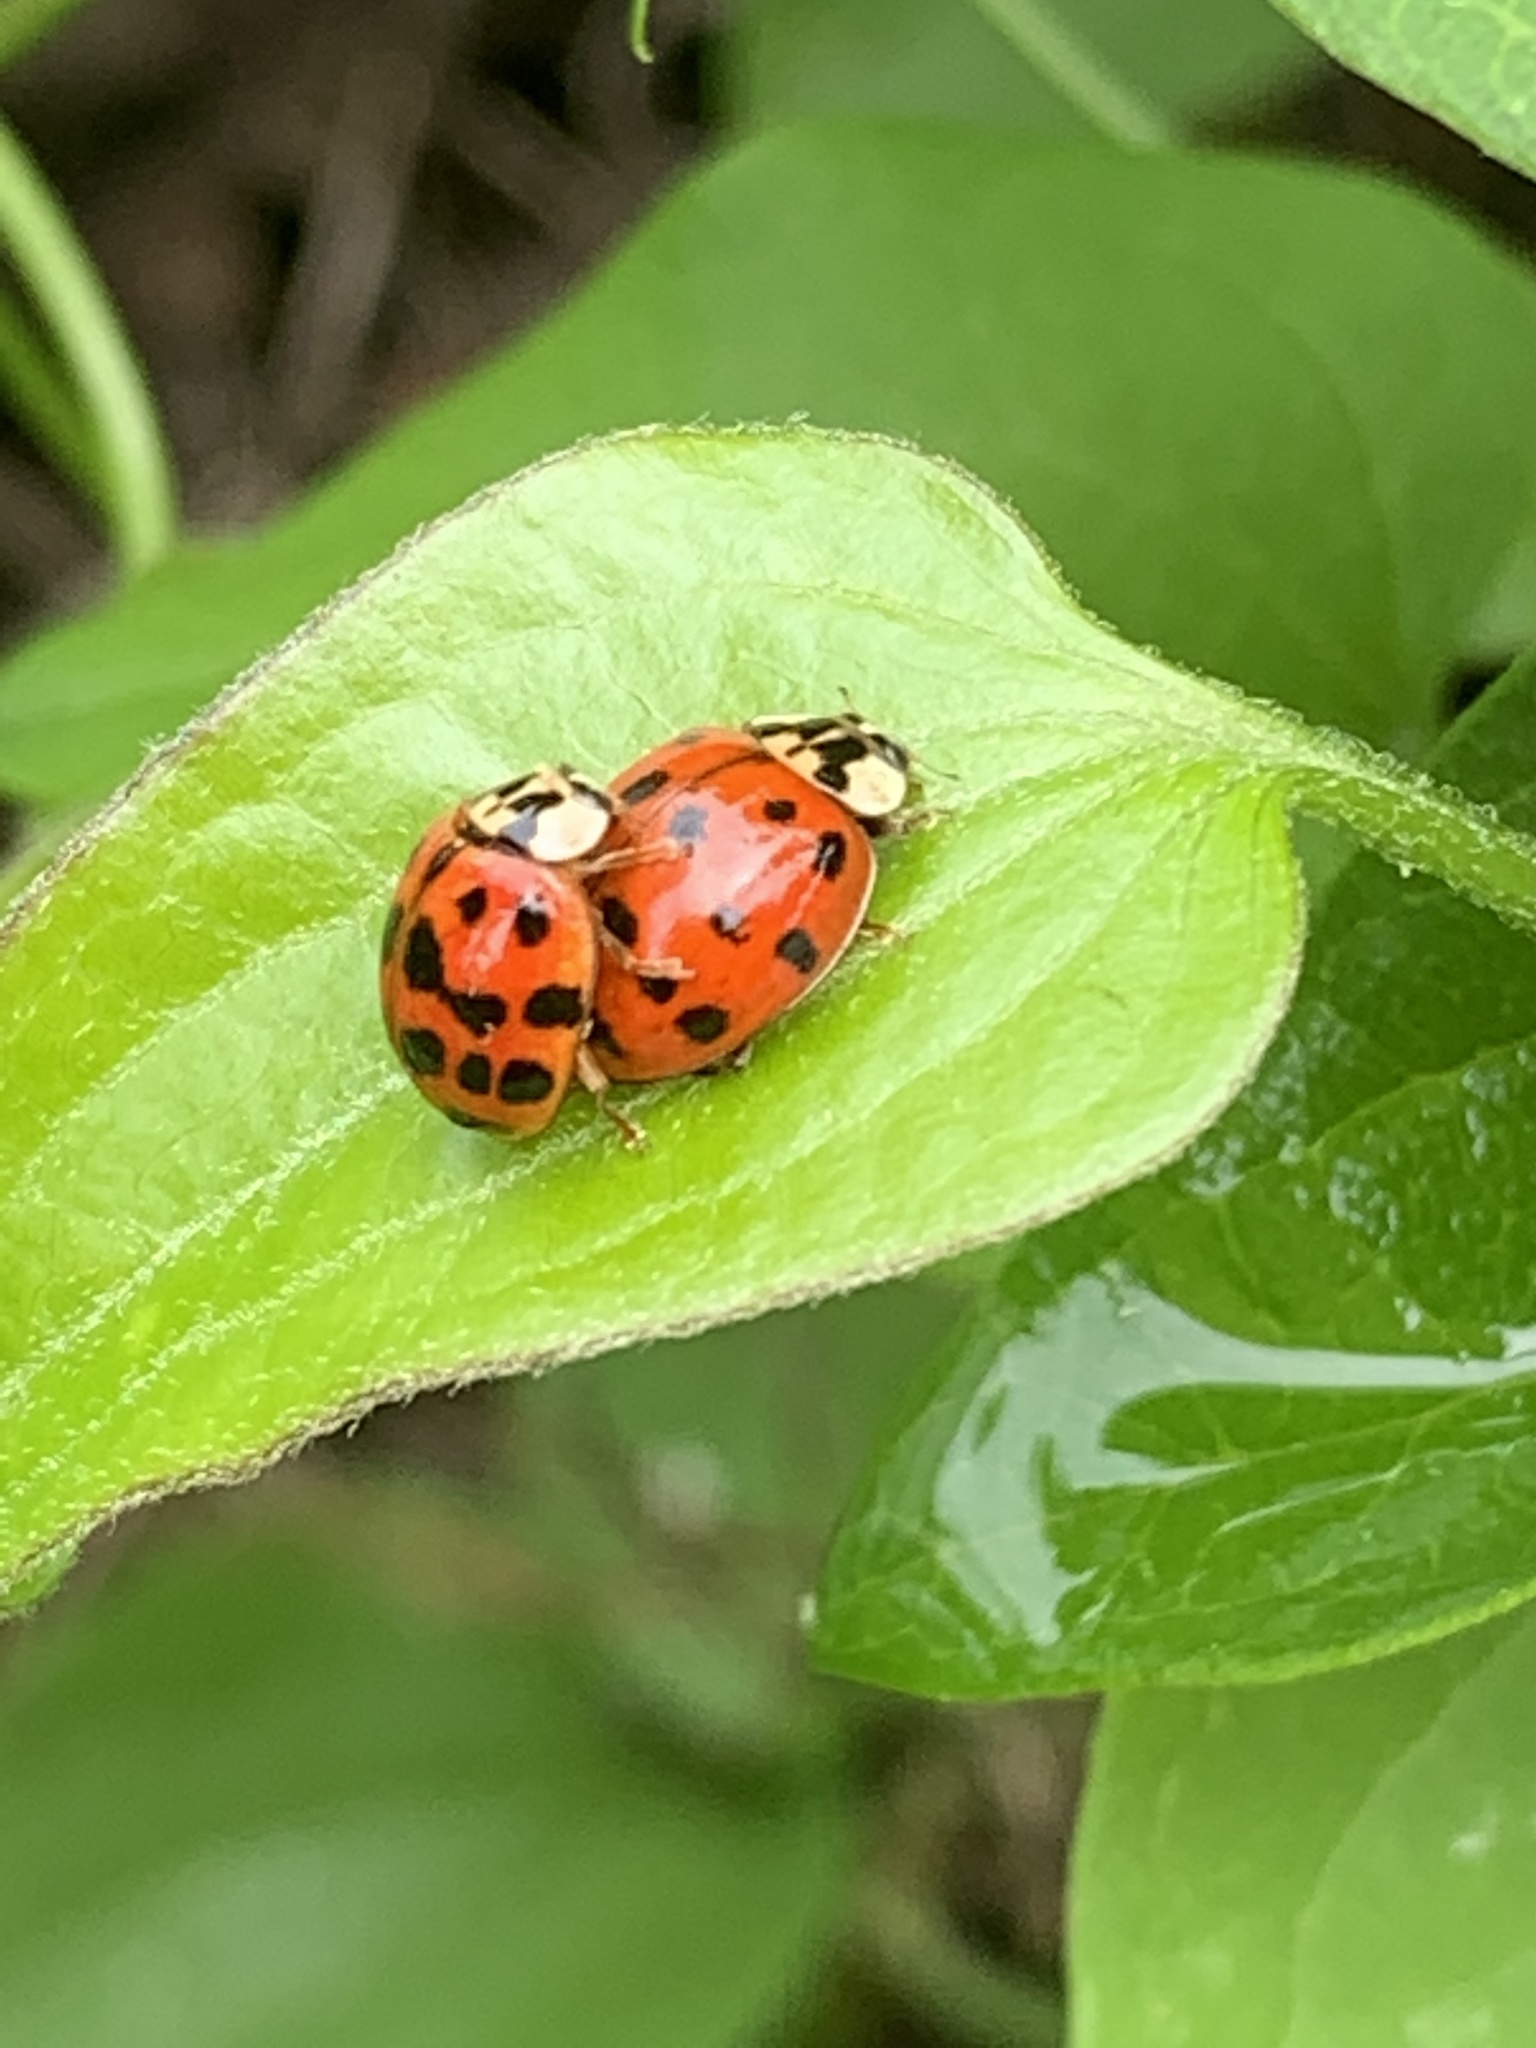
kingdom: Animalia
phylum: Arthropoda
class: Insecta
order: Coleoptera
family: Coccinellidae
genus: Harmonia
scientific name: Harmonia axyridis
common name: Harlequin ladybird
